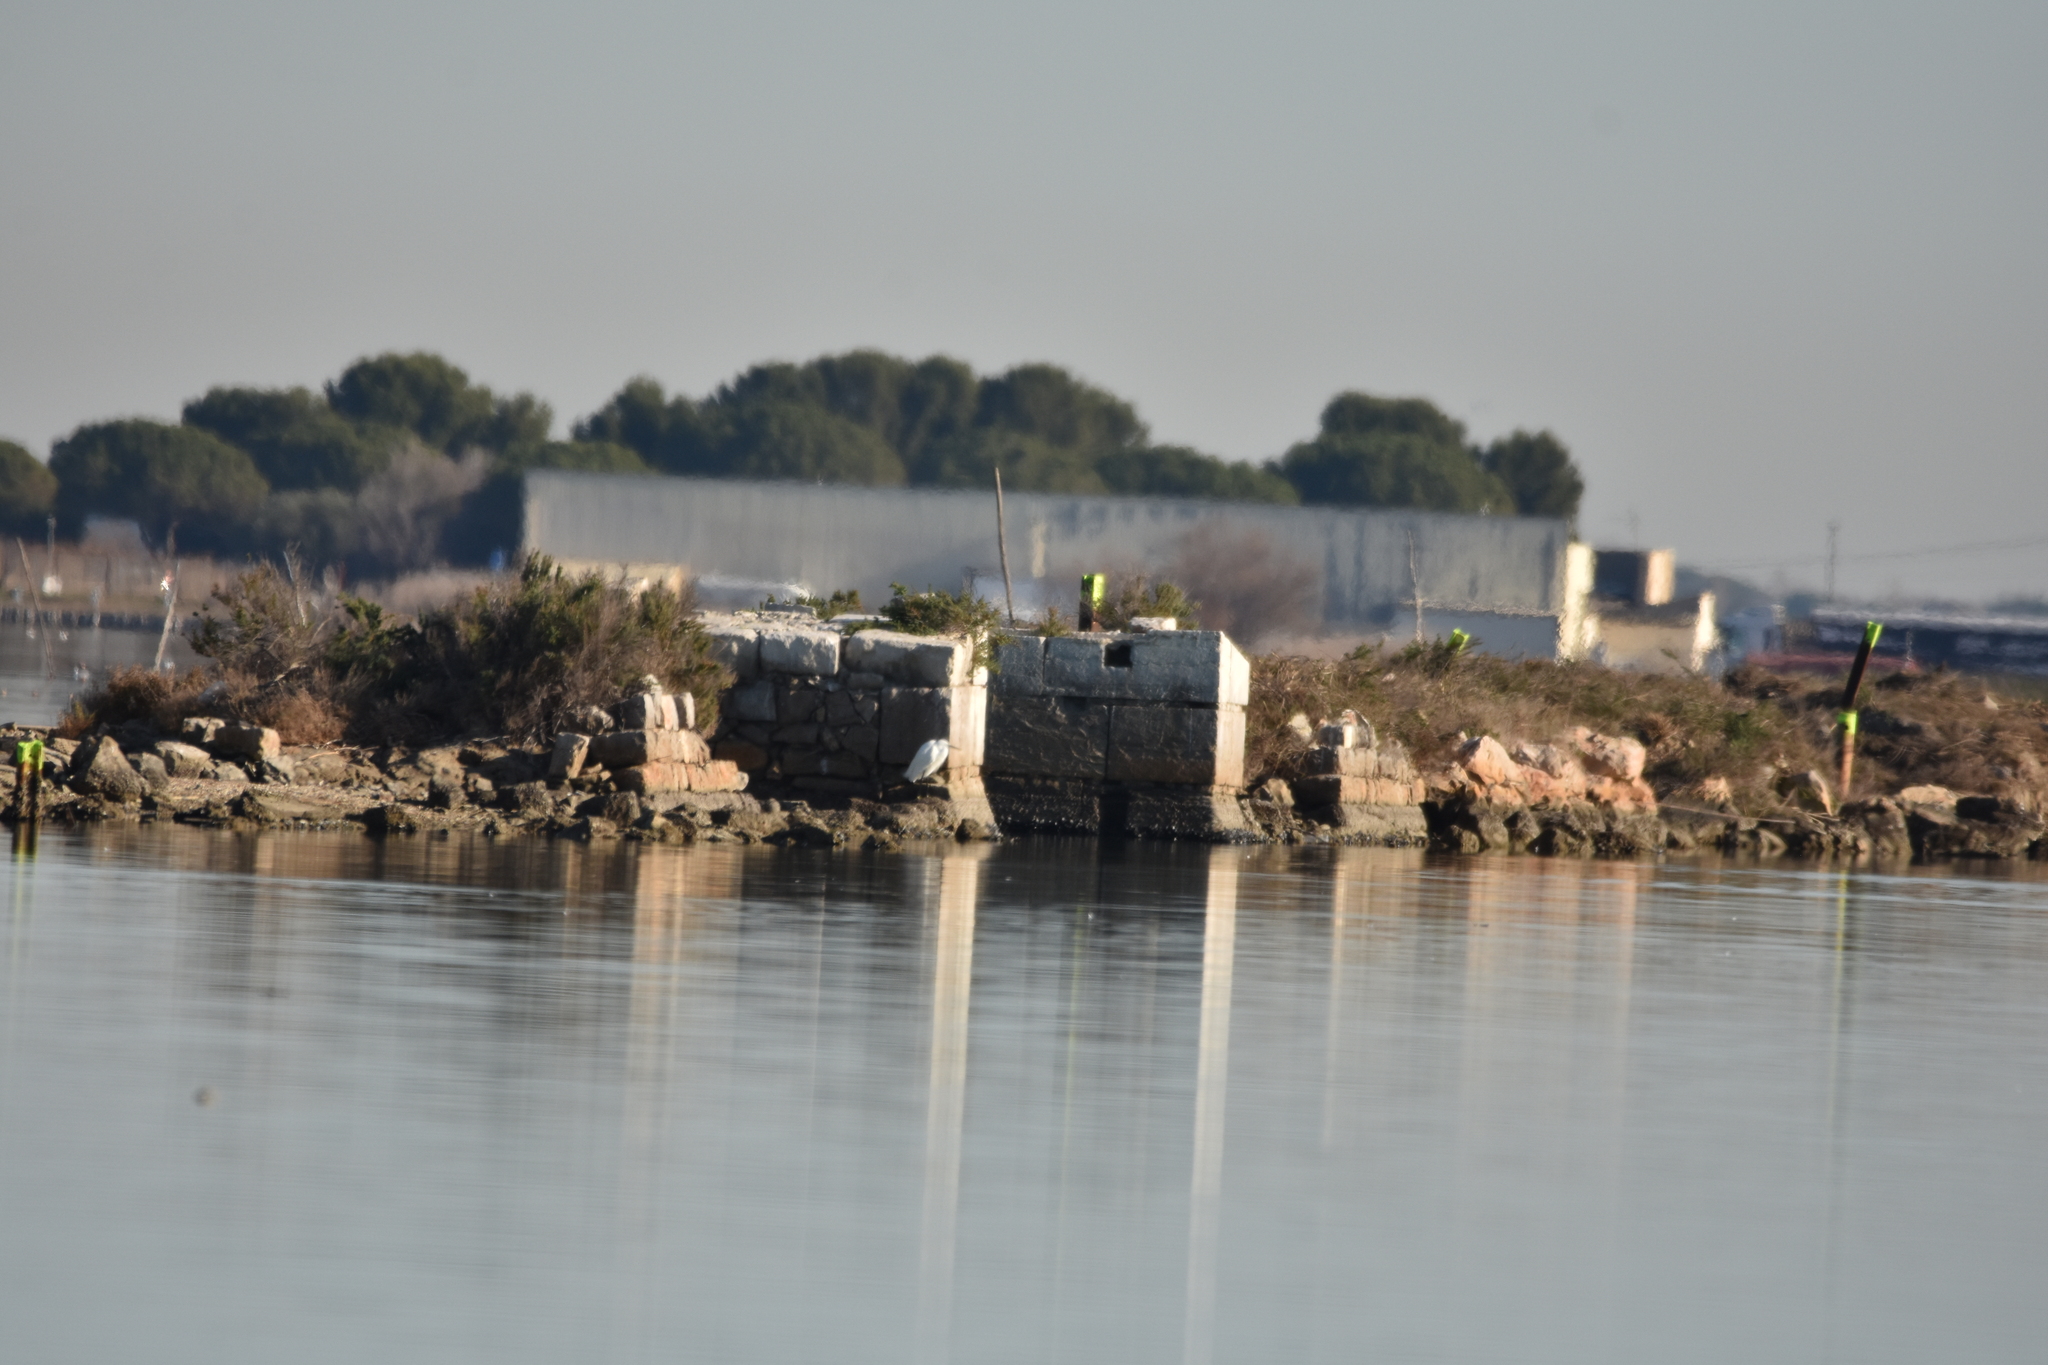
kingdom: Animalia
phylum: Chordata
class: Aves
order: Pelecaniformes
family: Ardeidae
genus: Egretta
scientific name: Egretta garzetta
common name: Little egret
